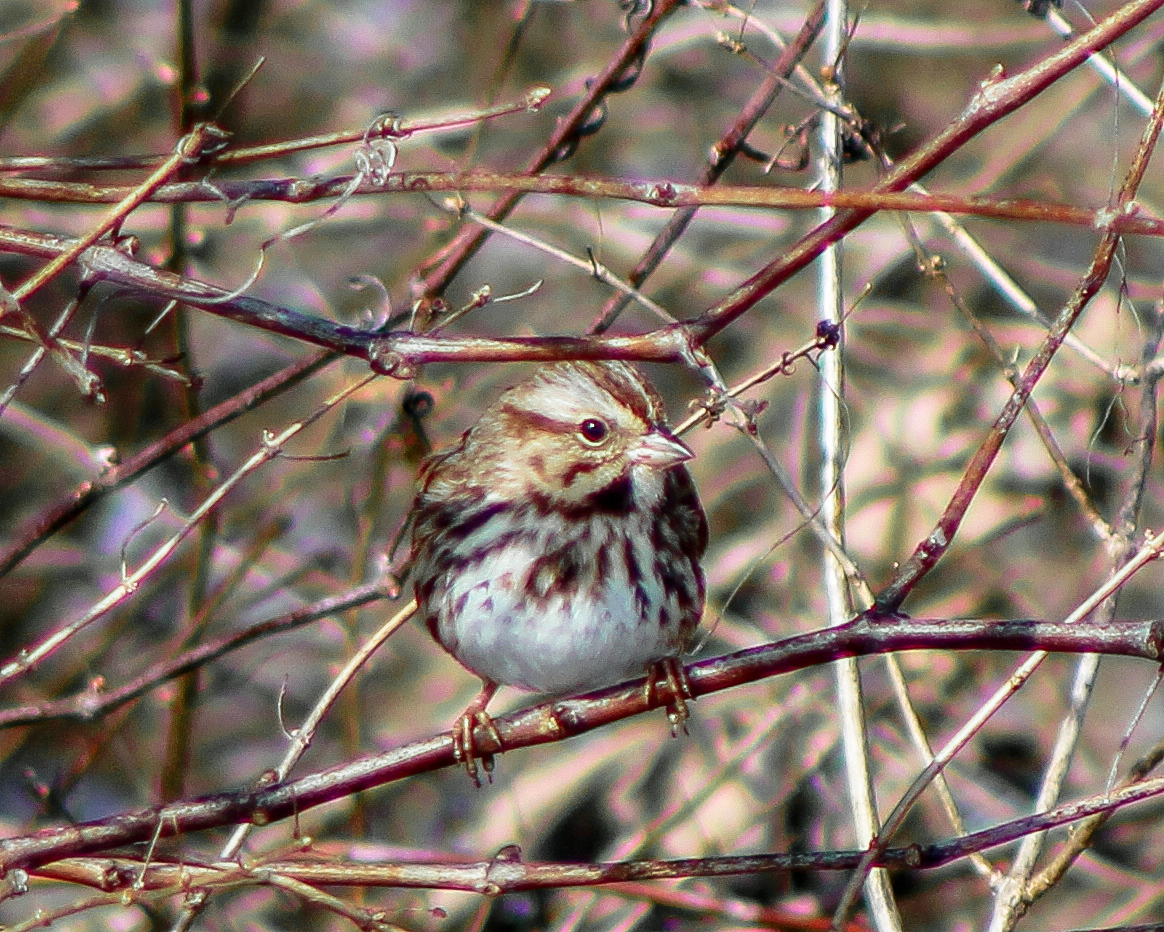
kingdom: Animalia
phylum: Chordata
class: Aves
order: Passeriformes
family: Passerellidae
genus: Melospiza
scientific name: Melospiza melodia
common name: Song sparrow
